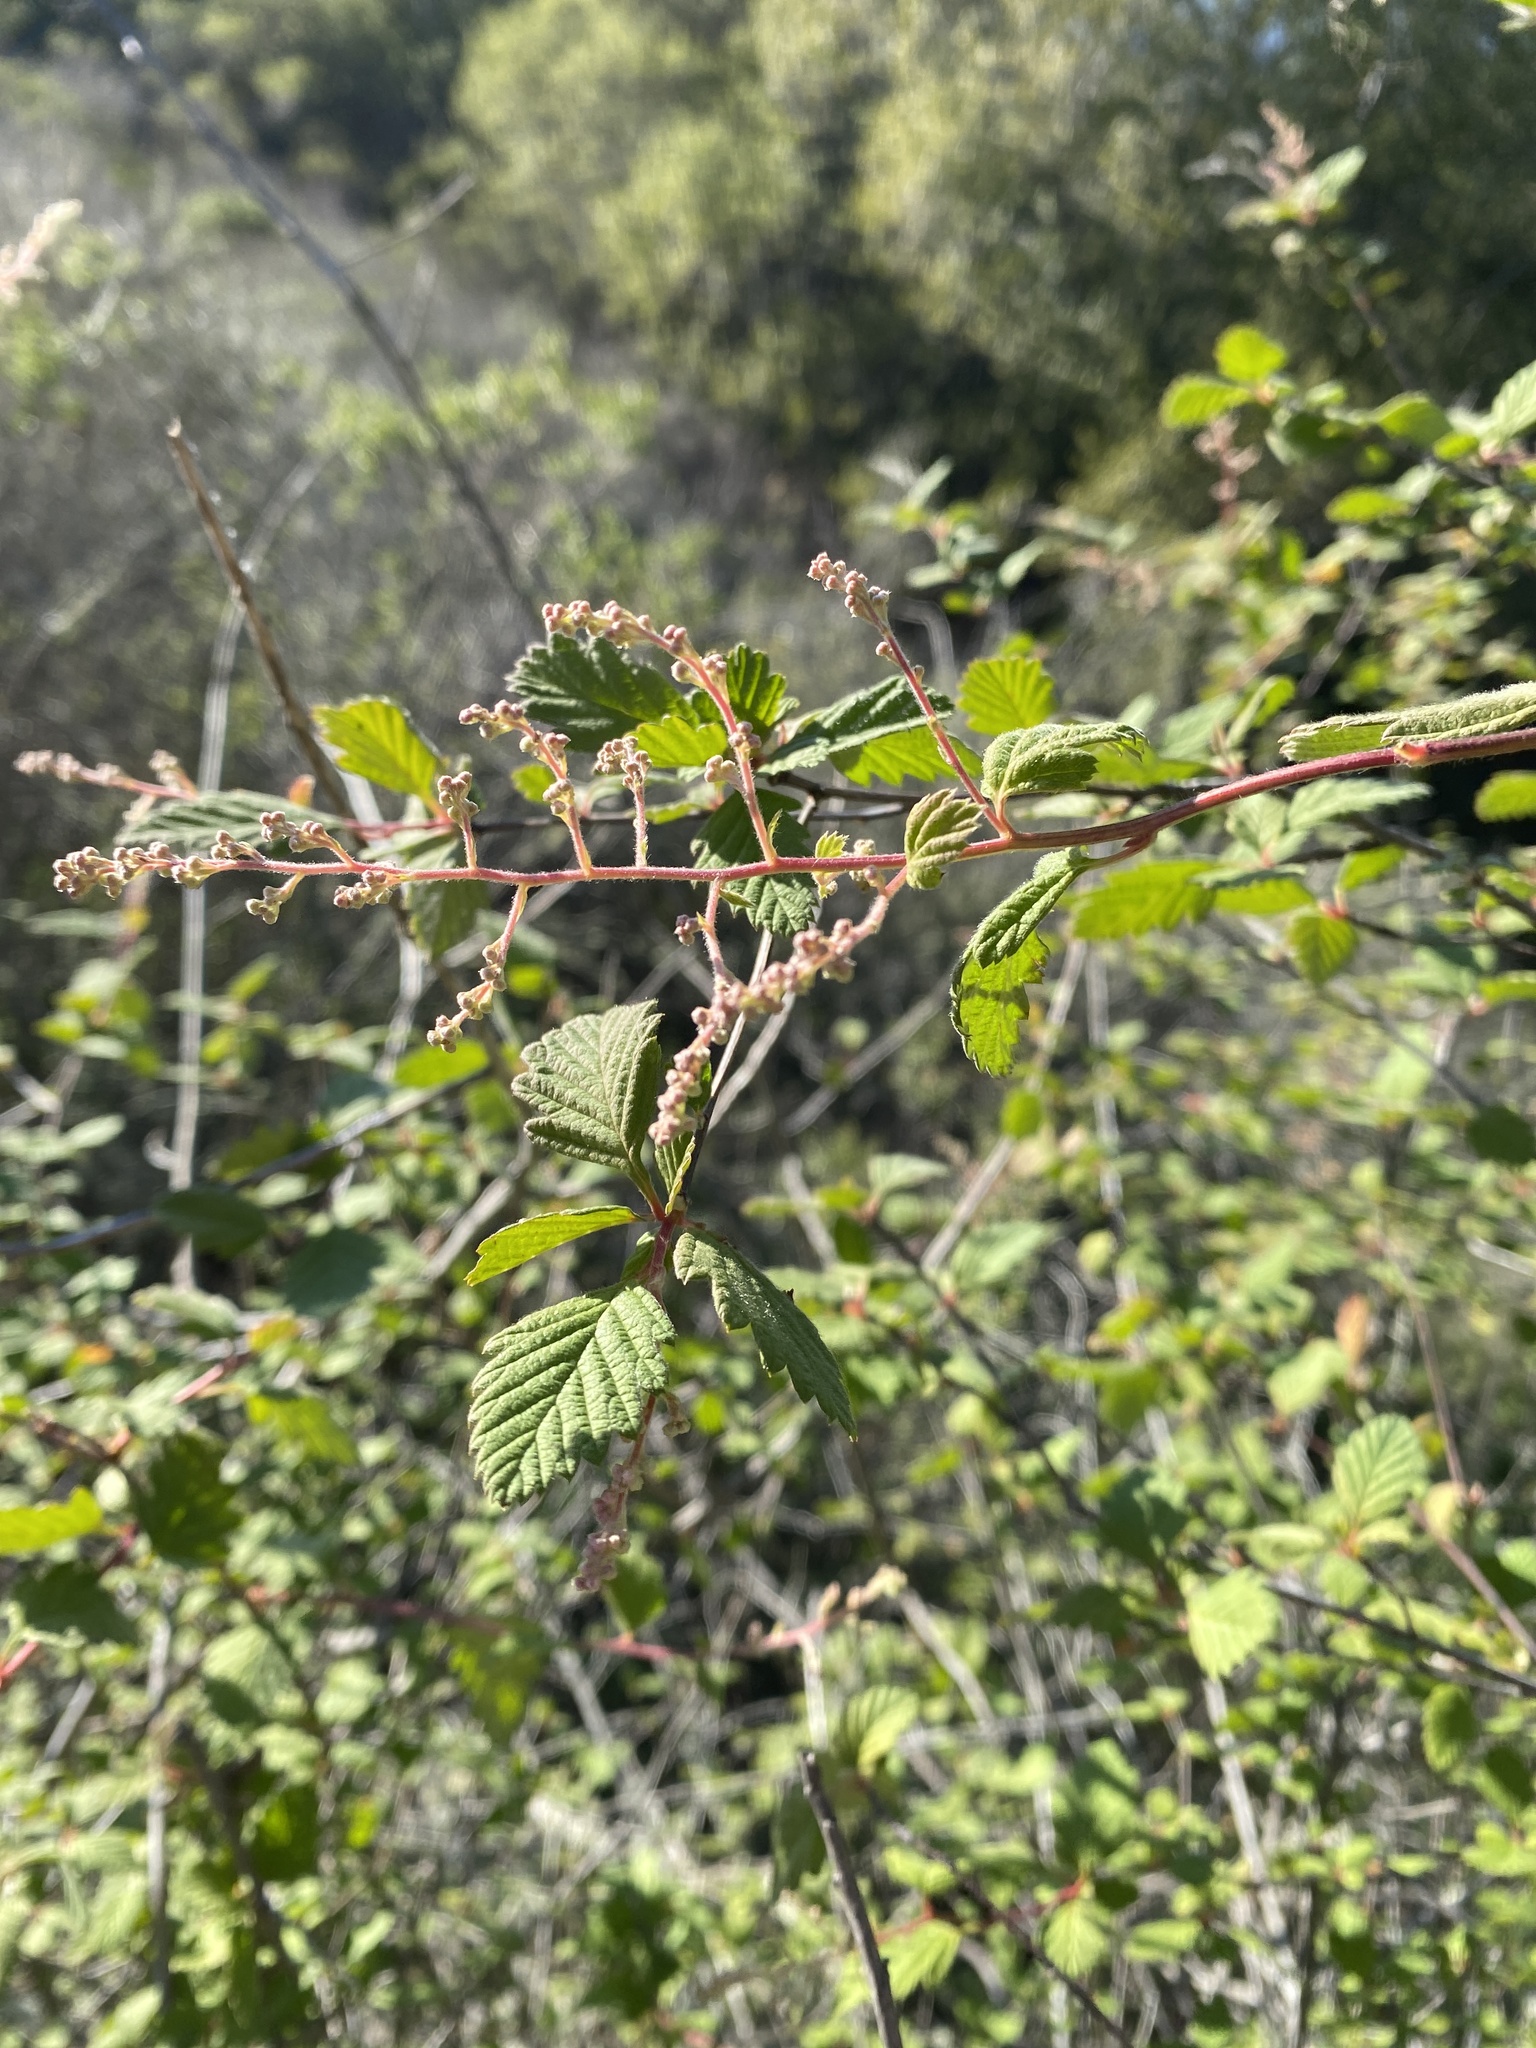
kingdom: Plantae
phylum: Tracheophyta
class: Magnoliopsida
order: Rosales
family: Rosaceae
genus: Holodiscus
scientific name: Holodiscus discolor
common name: Oceanspray
